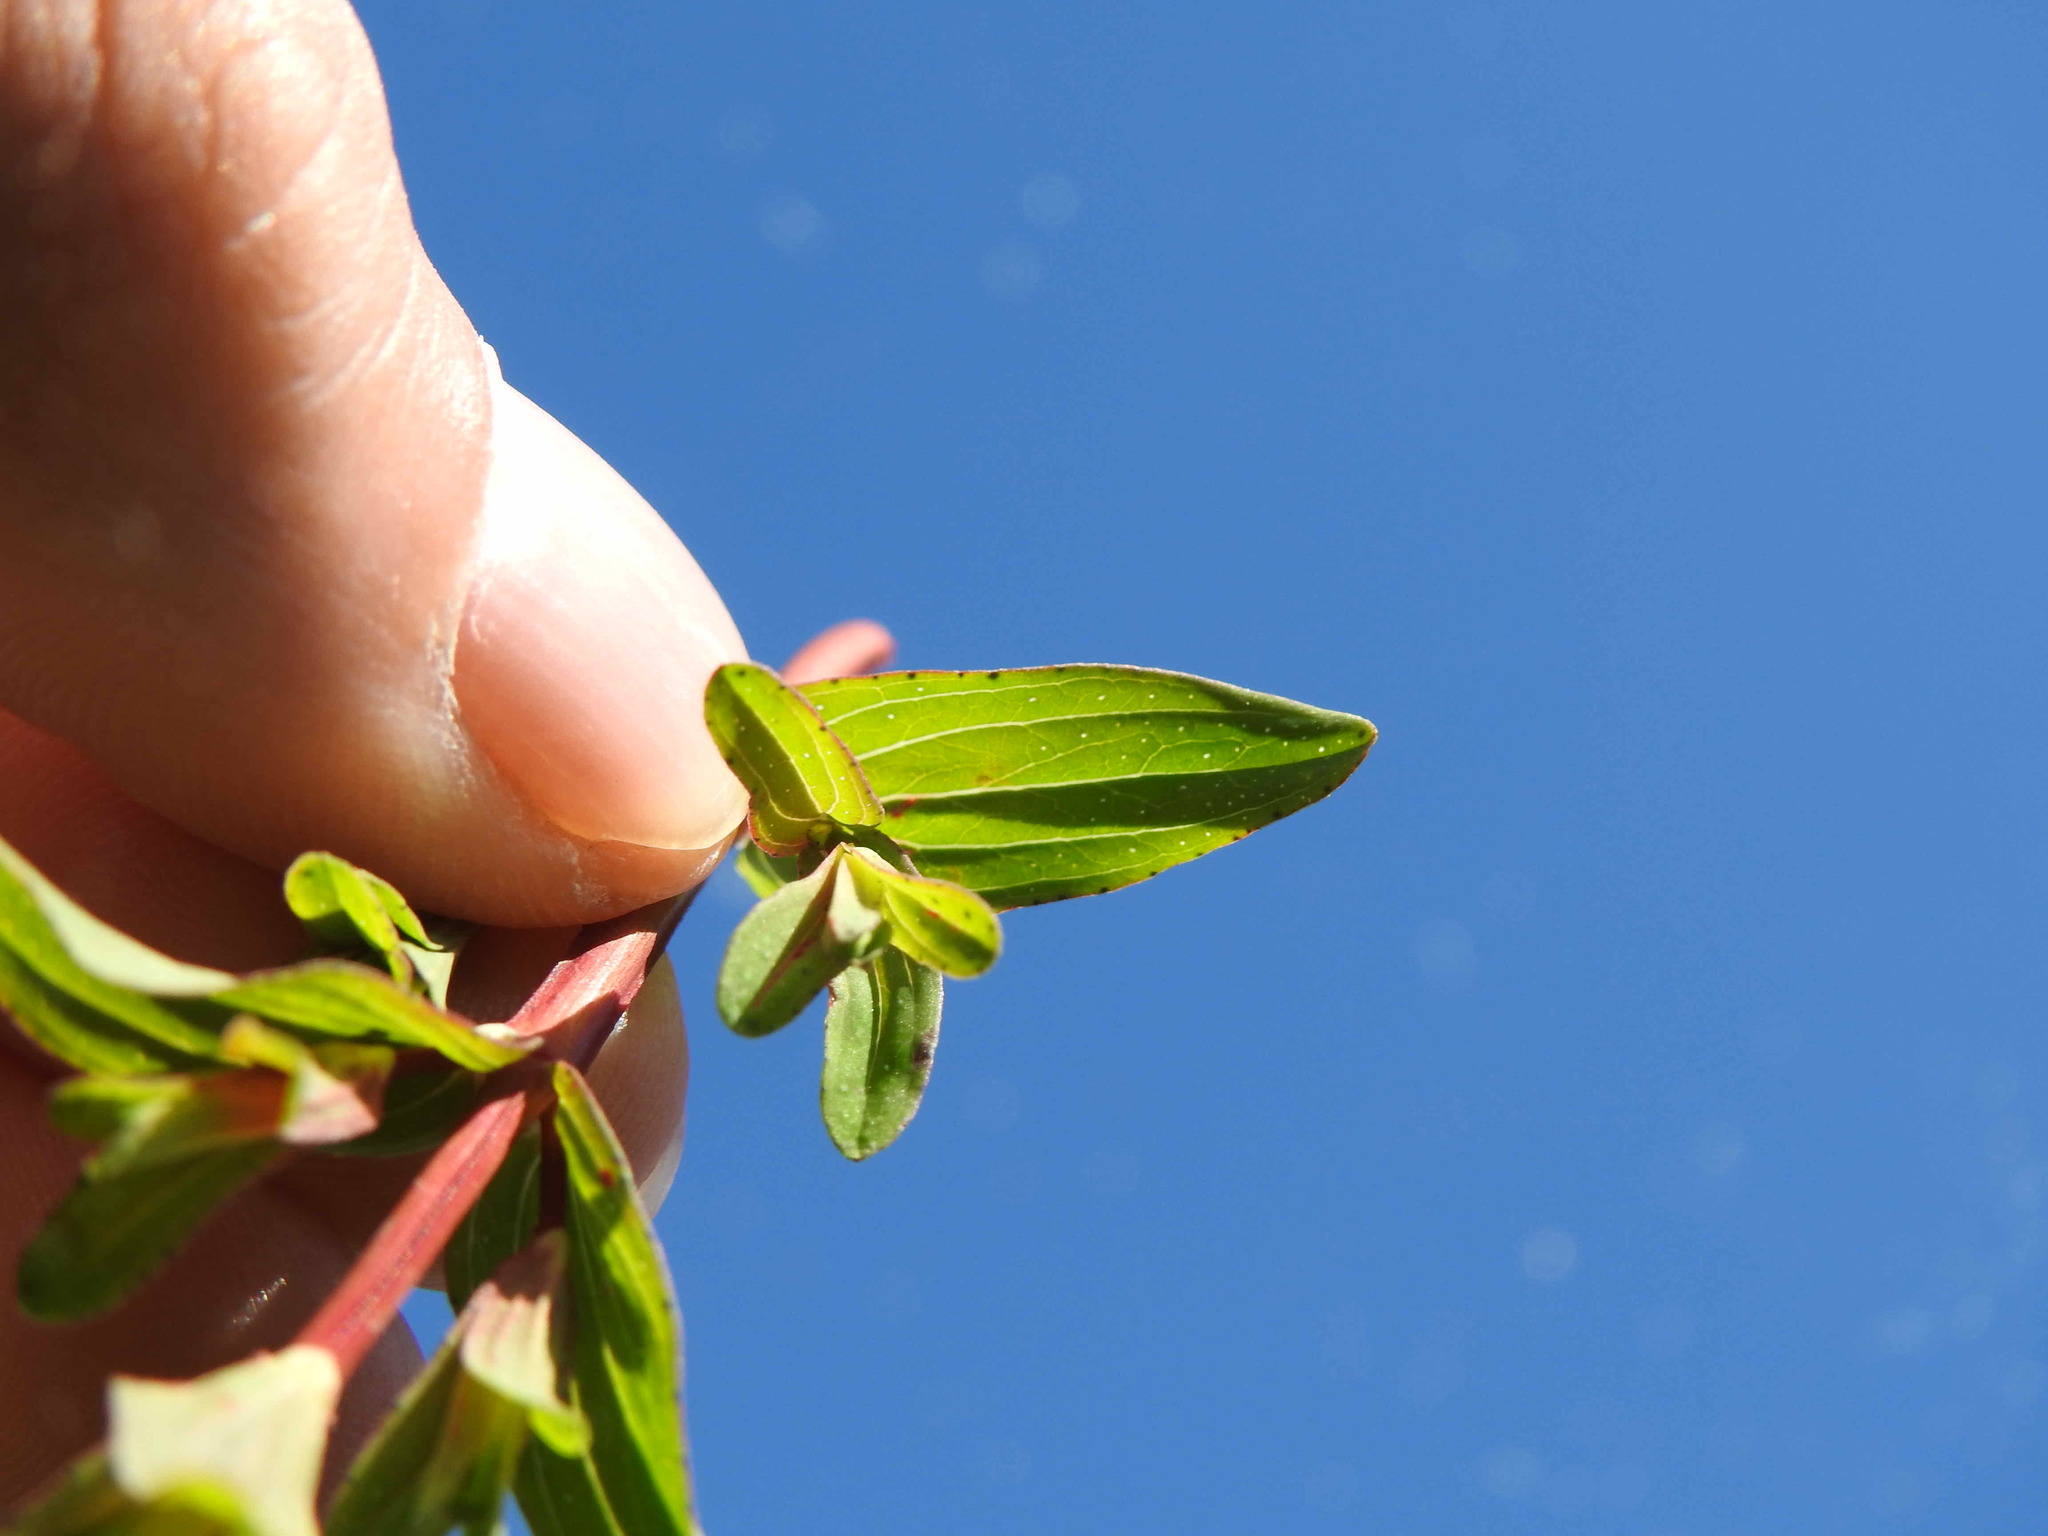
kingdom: Plantae
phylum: Tracheophyta
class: Magnoliopsida
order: Malpighiales
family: Hypericaceae
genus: Hypericum
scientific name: Hypericum perforatum
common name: Common st. johnswort
